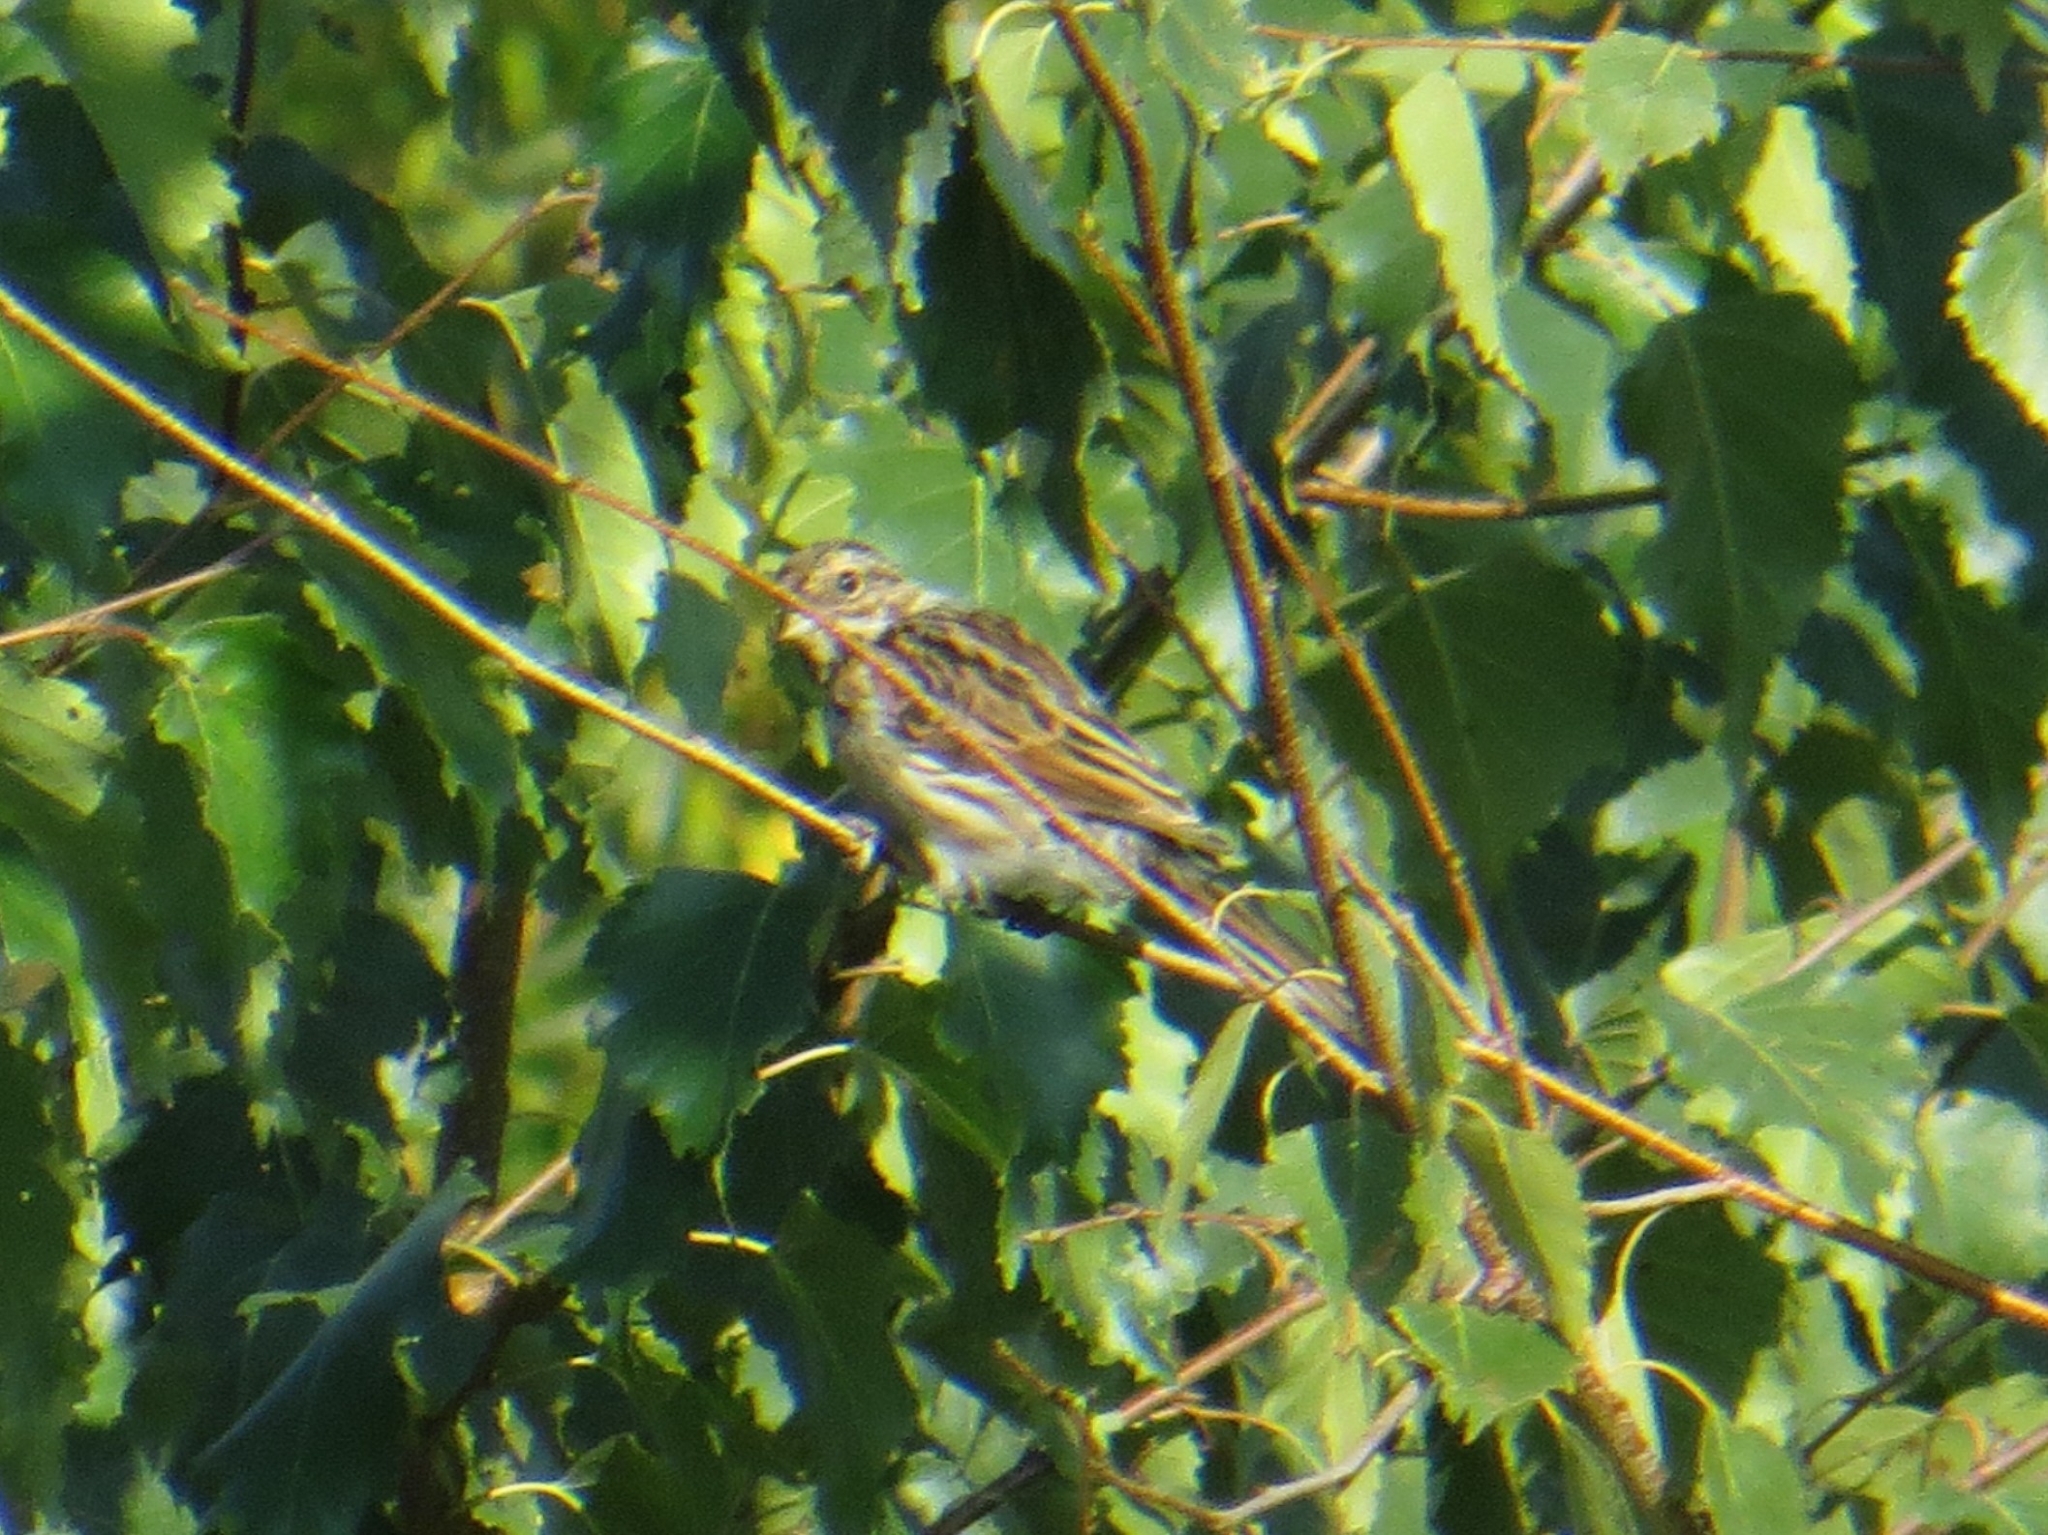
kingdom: Animalia
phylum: Chordata
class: Aves
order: Passeriformes
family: Emberizidae
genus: Emberiza
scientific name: Emberiza schoeniclus
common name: Reed bunting
